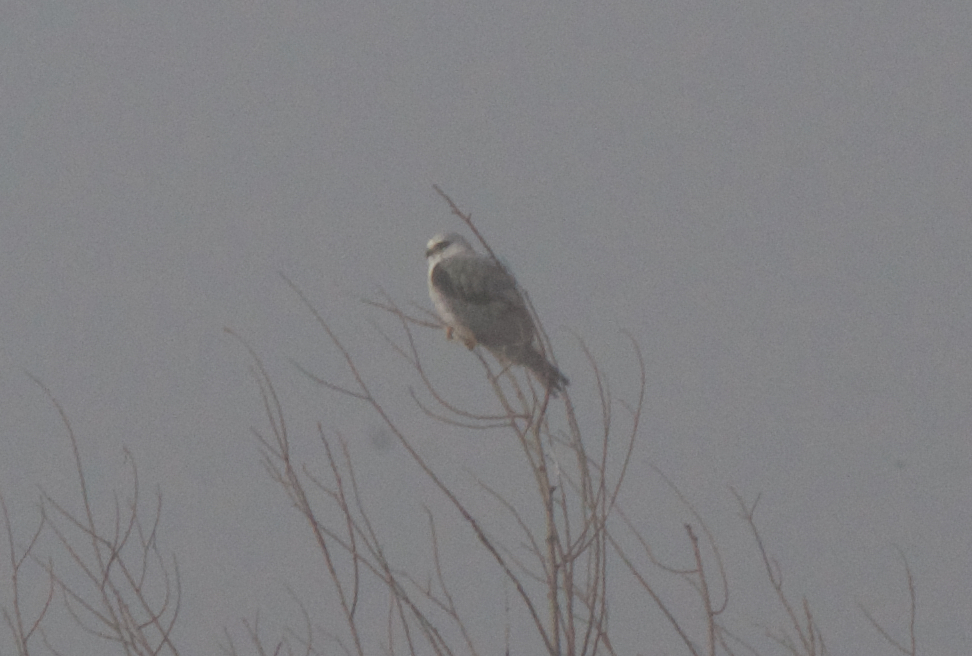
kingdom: Animalia
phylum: Chordata
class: Aves
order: Accipitriformes
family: Accipitridae
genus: Elanus
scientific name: Elanus leucurus
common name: White-tailed kite
